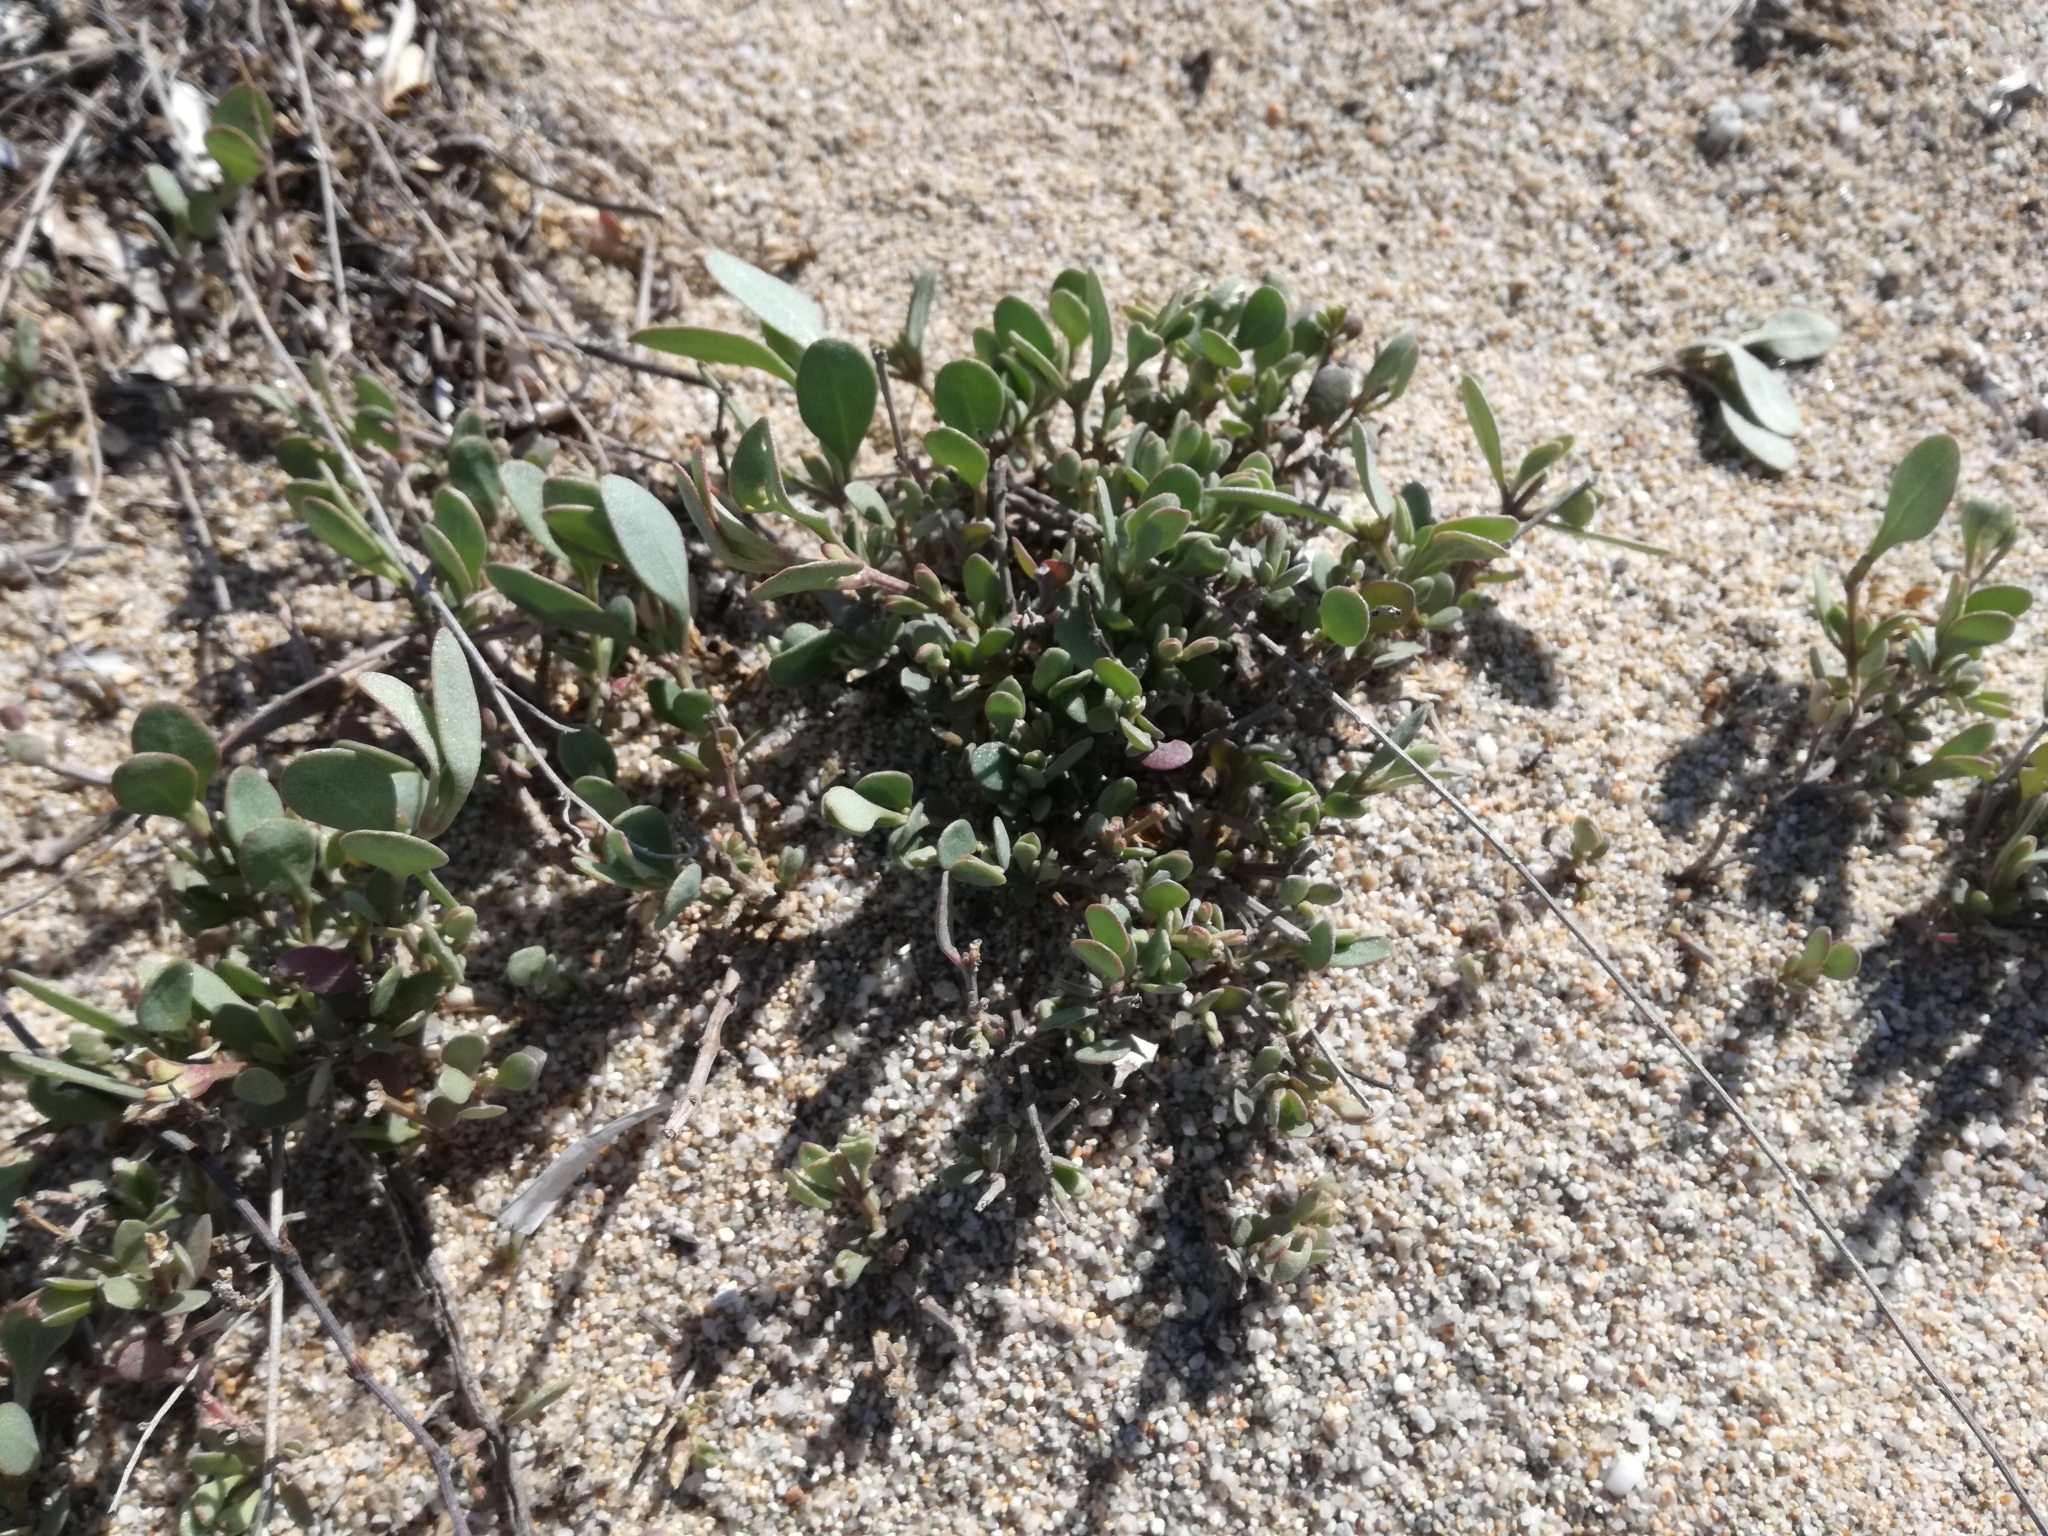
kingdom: Plantae
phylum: Tracheophyta
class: Magnoliopsida
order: Caryophyllales
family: Amaranthaceae
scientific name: Amaranthaceae
